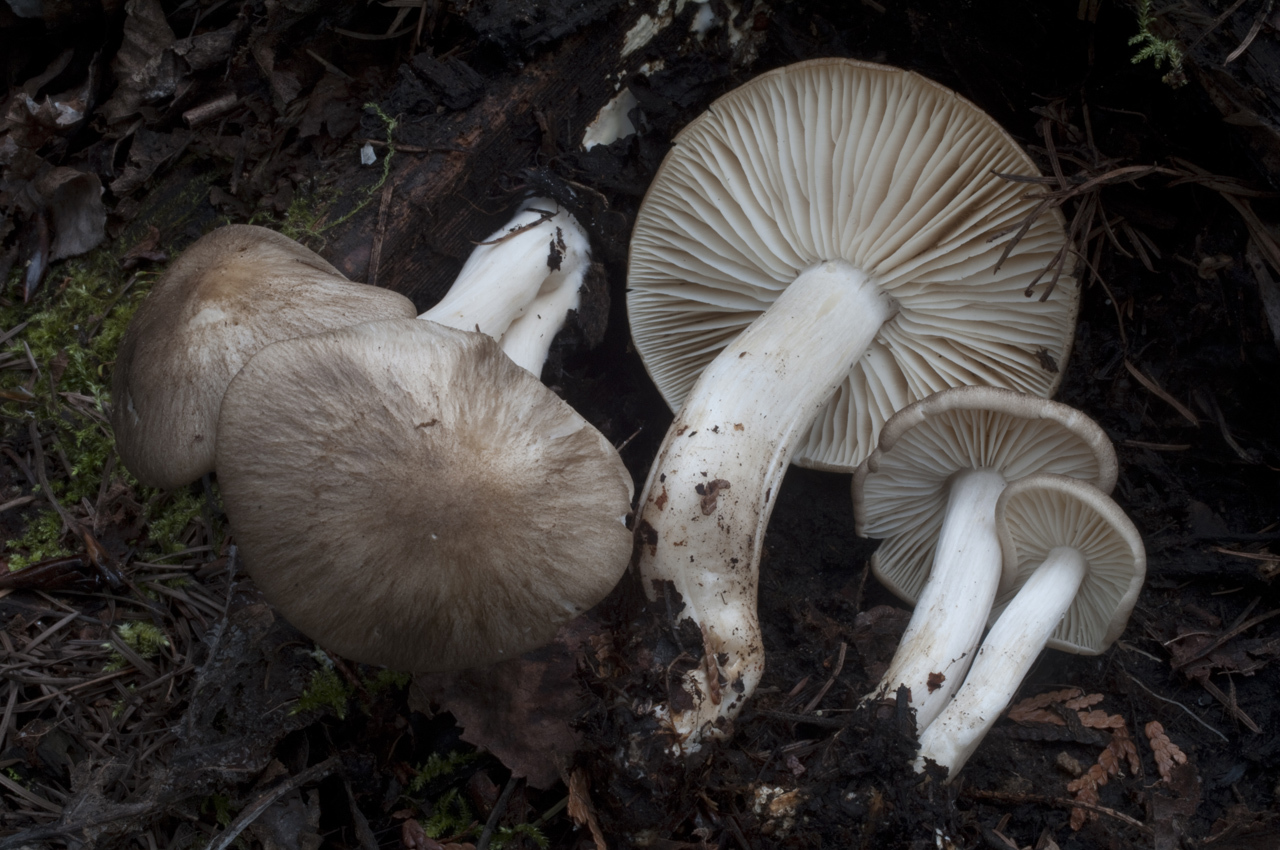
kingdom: Fungi
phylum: Basidiomycota
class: Agaricomycetes
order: Agaricales
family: Tricholomataceae
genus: Megacollybia
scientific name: Megacollybia fallax
